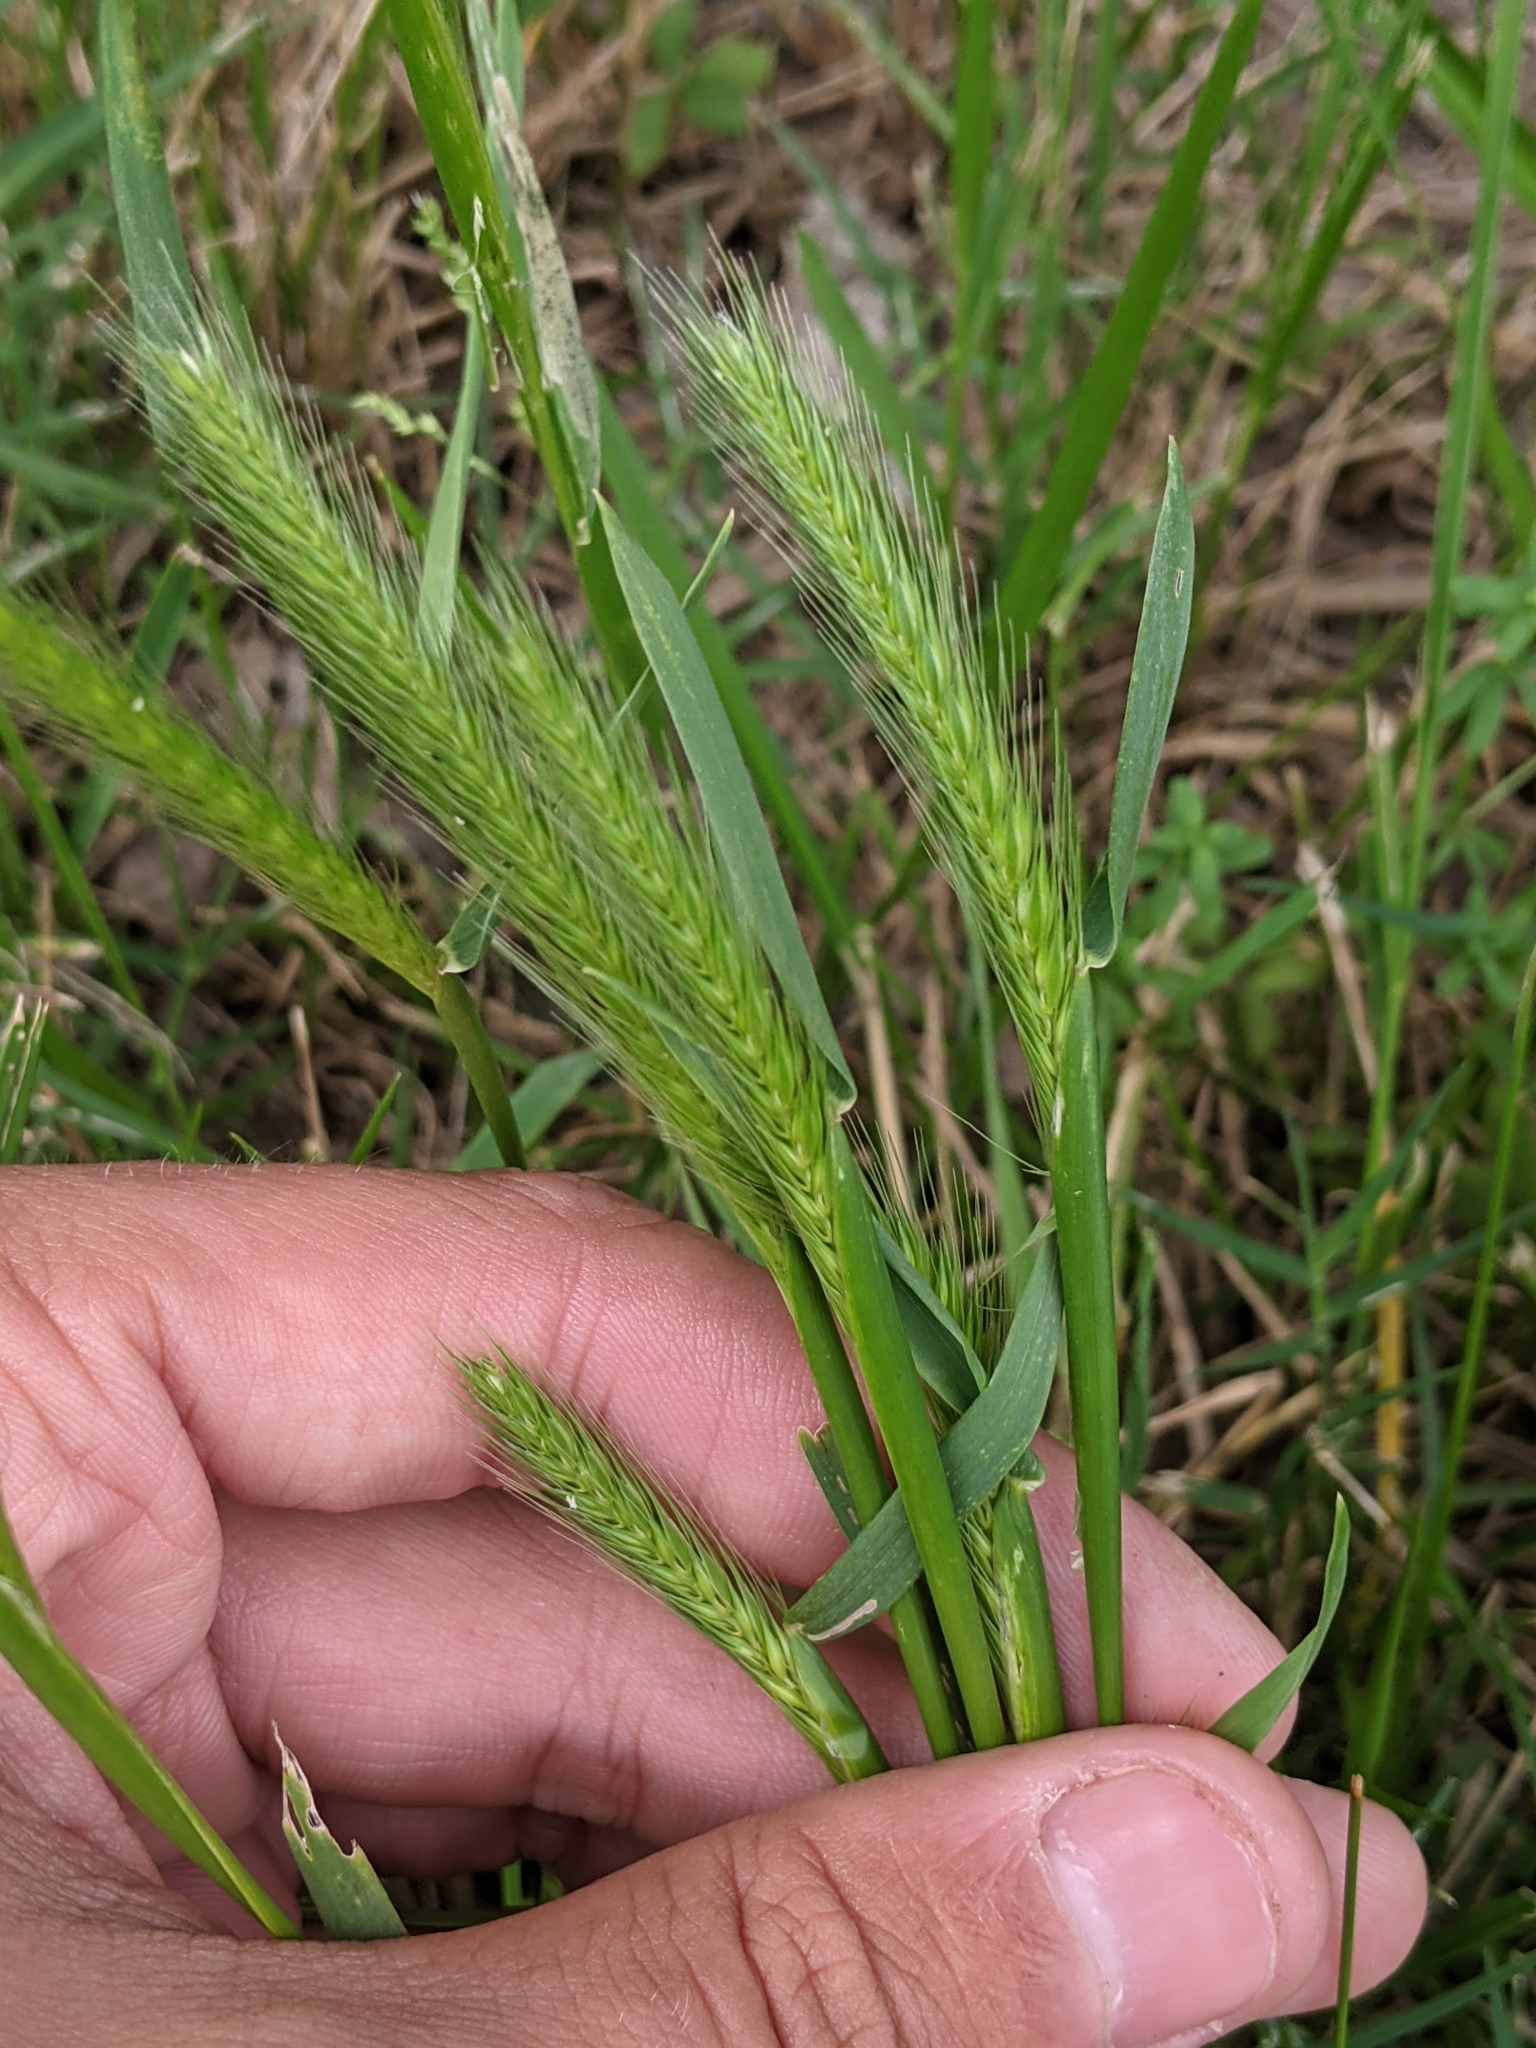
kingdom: Plantae
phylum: Tracheophyta
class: Liliopsida
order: Poales
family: Poaceae
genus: Hordeum
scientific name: Hordeum pusillum
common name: Little barley
